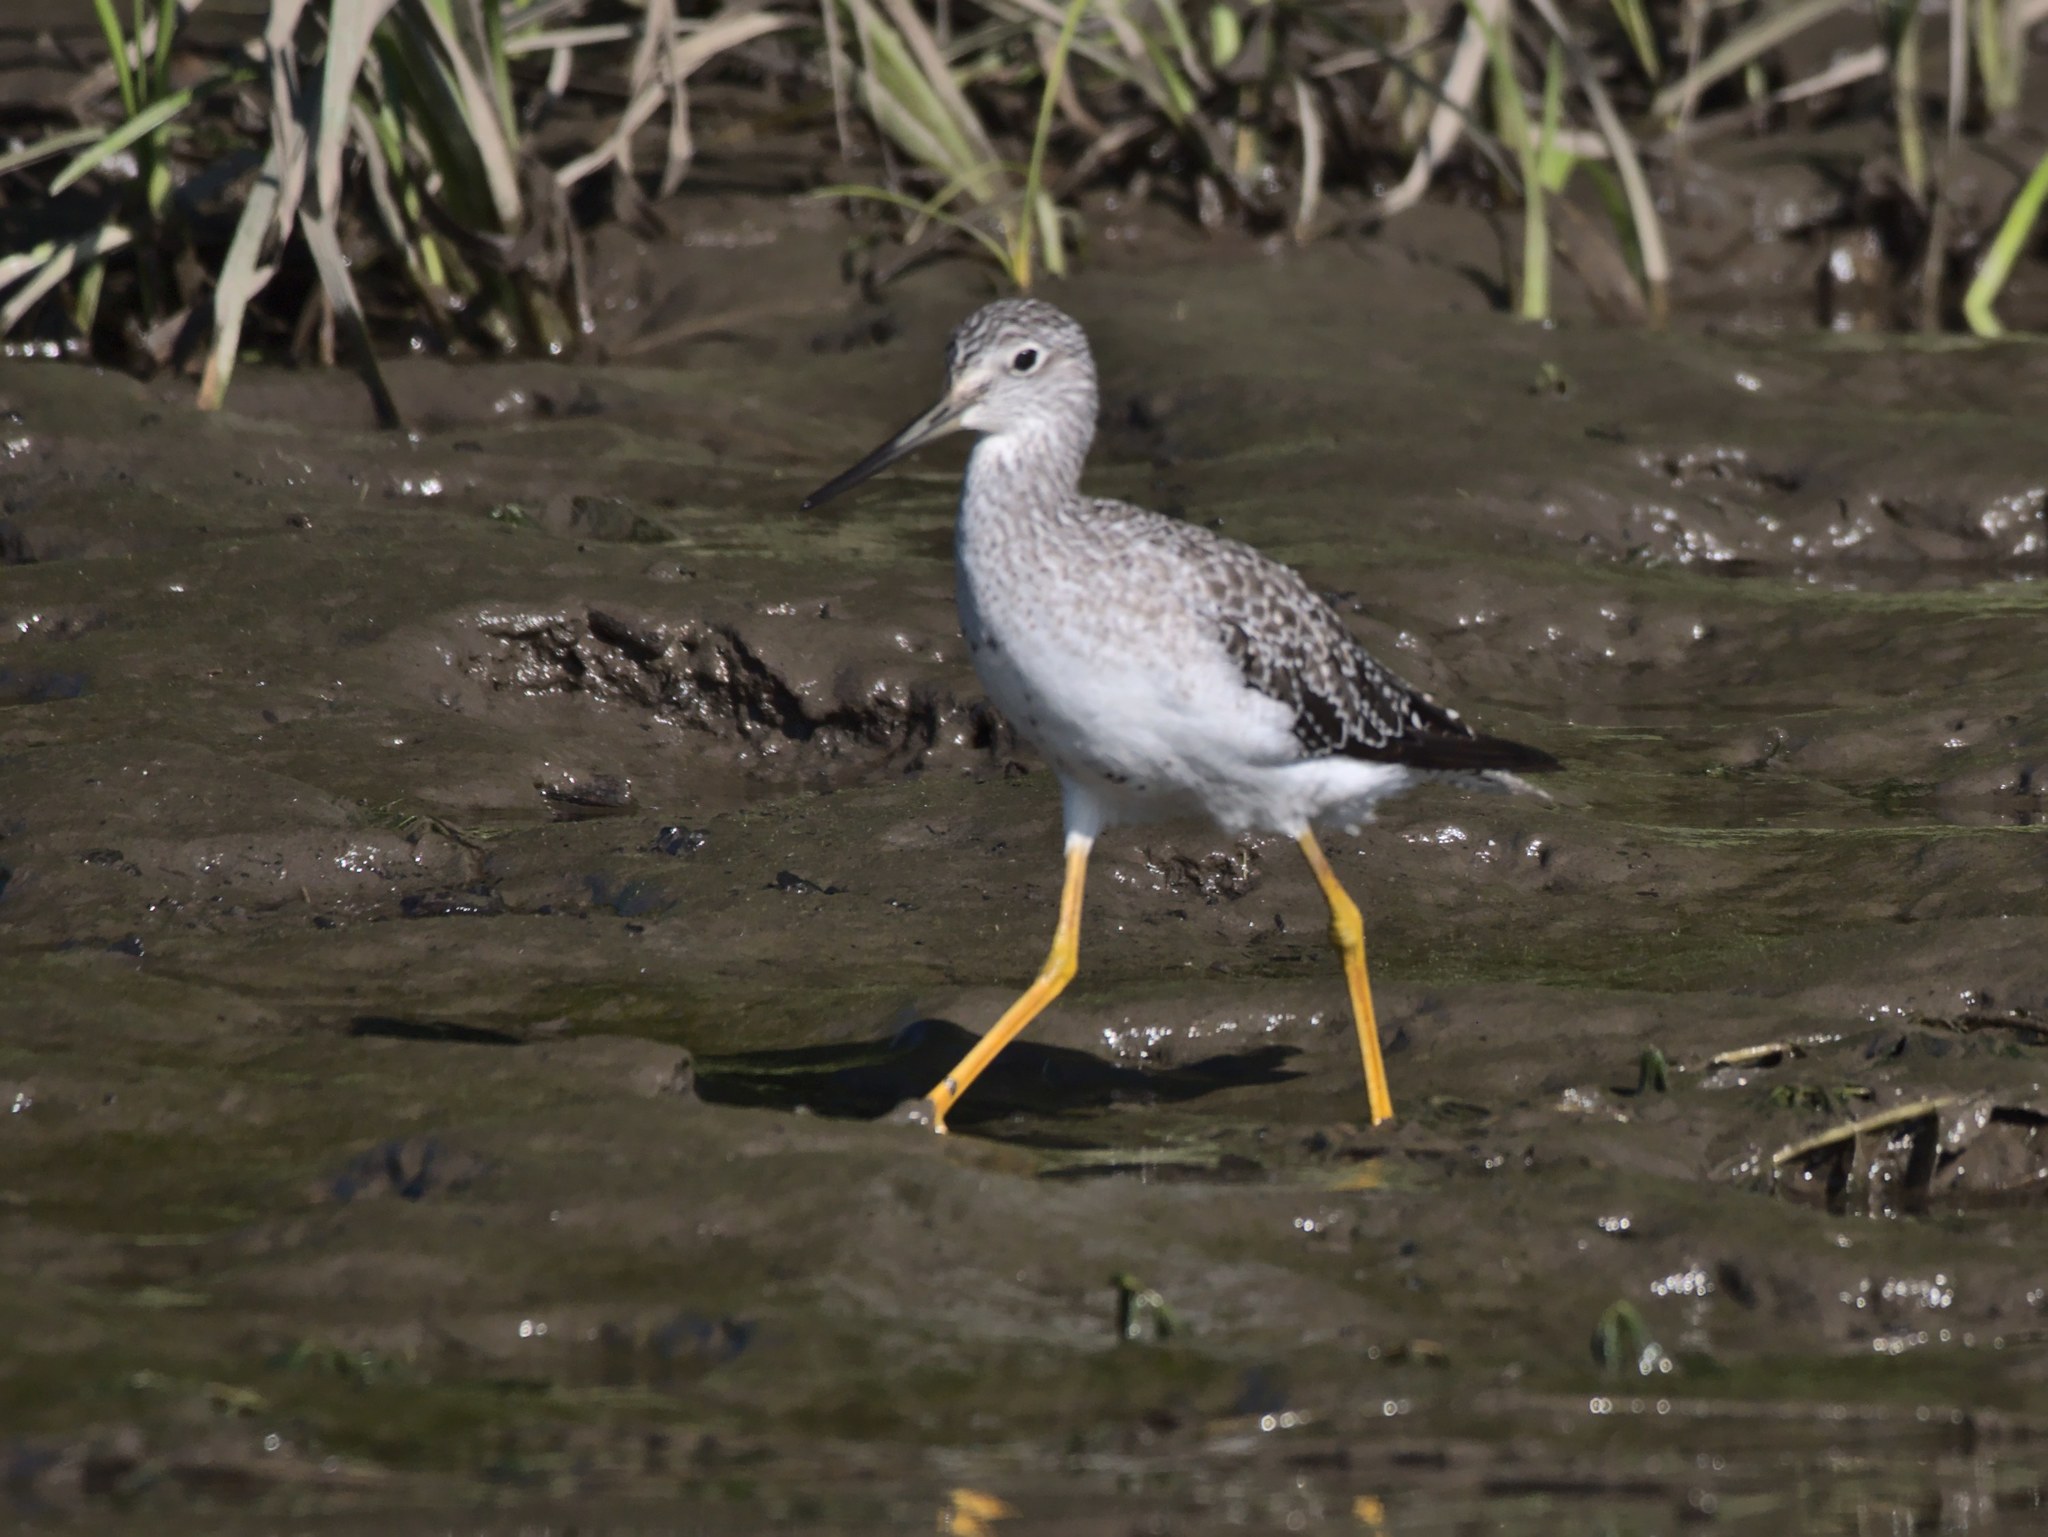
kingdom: Animalia
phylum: Chordata
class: Aves
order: Charadriiformes
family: Scolopacidae
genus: Tringa
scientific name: Tringa melanoleuca
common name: Greater yellowlegs
